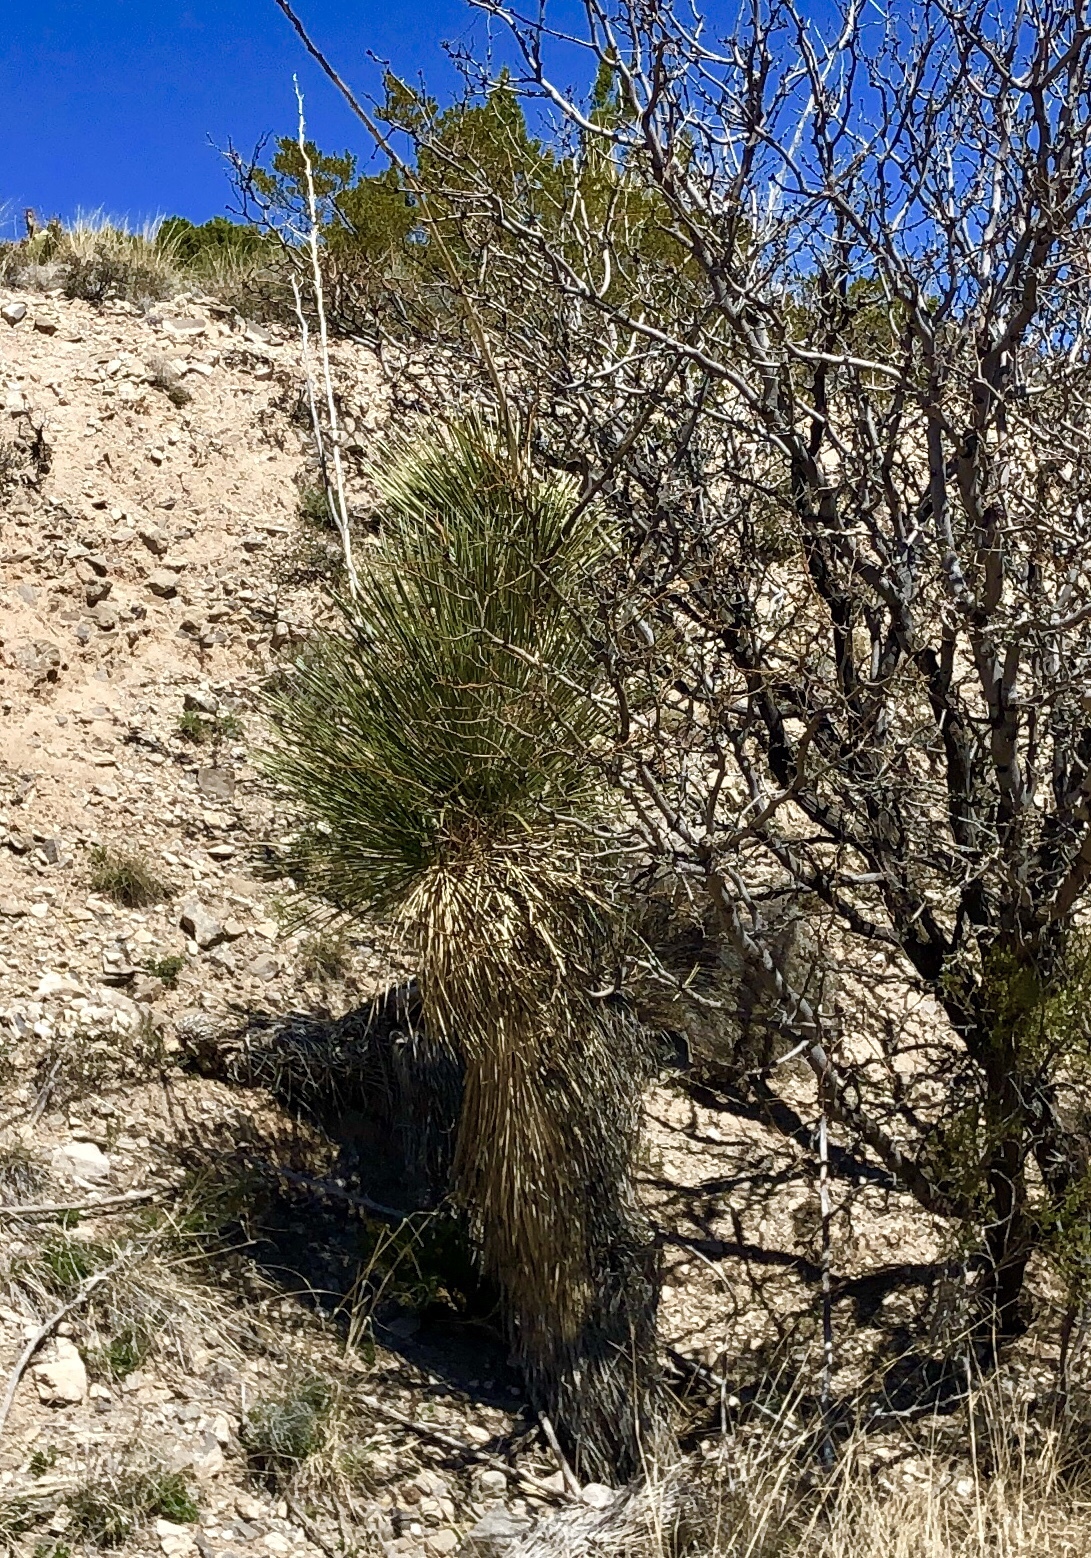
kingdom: Plantae
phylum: Tracheophyta
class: Liliopsida
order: Asparagales
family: Asparagaceae
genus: Yucca
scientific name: Yucca elata
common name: Palmella
